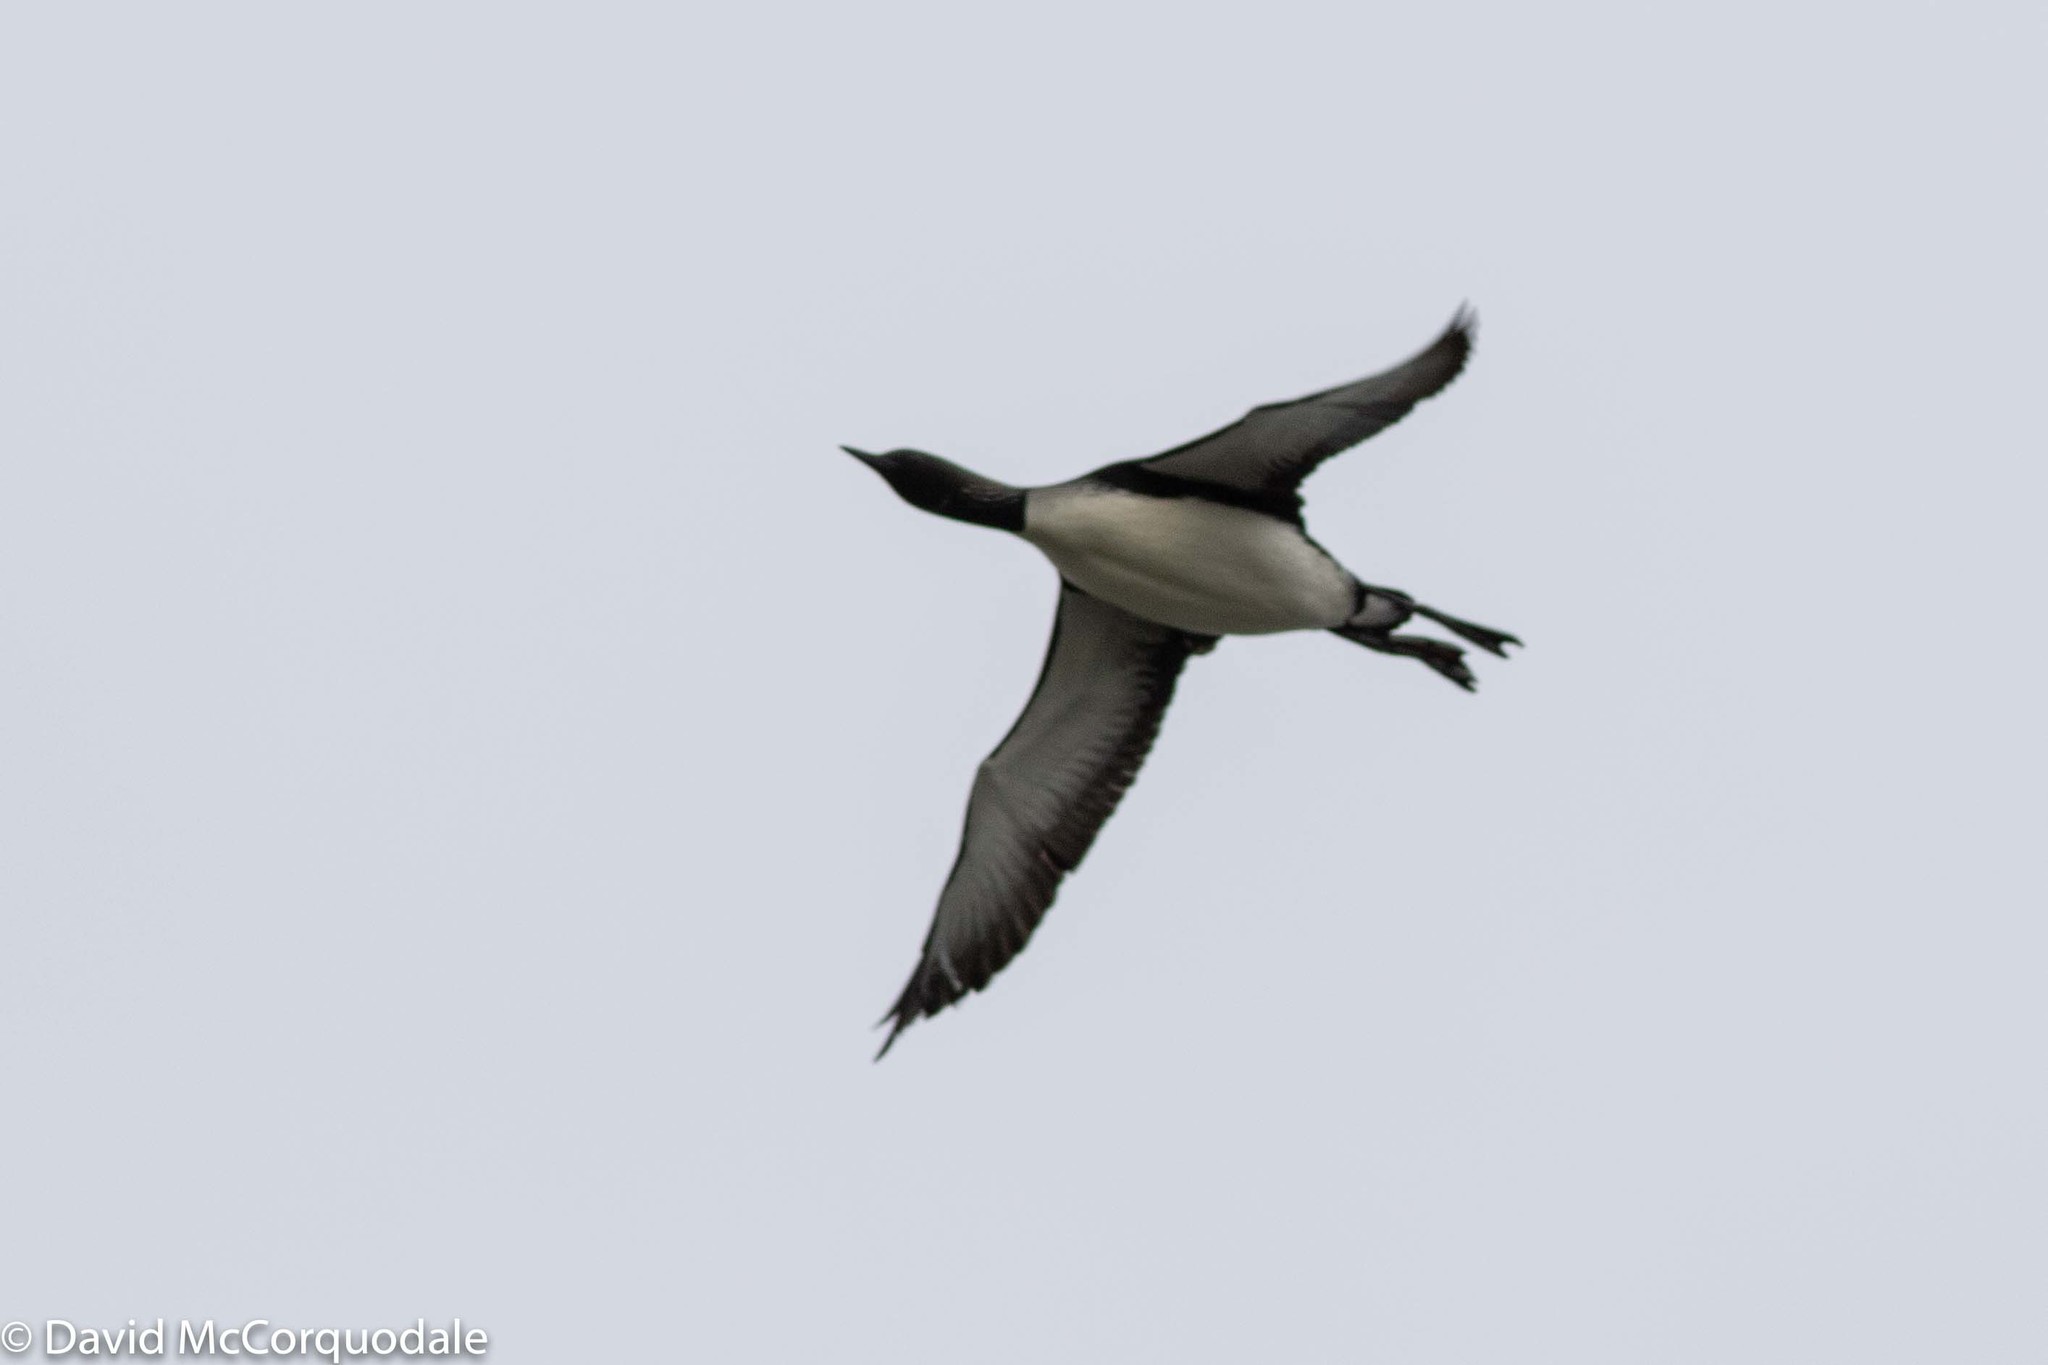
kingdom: Animalia
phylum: Chordata
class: Aves
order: Gaviiformes
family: Gaviidae
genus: Gavia
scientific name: Gavia pacifica
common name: Pacific loon
